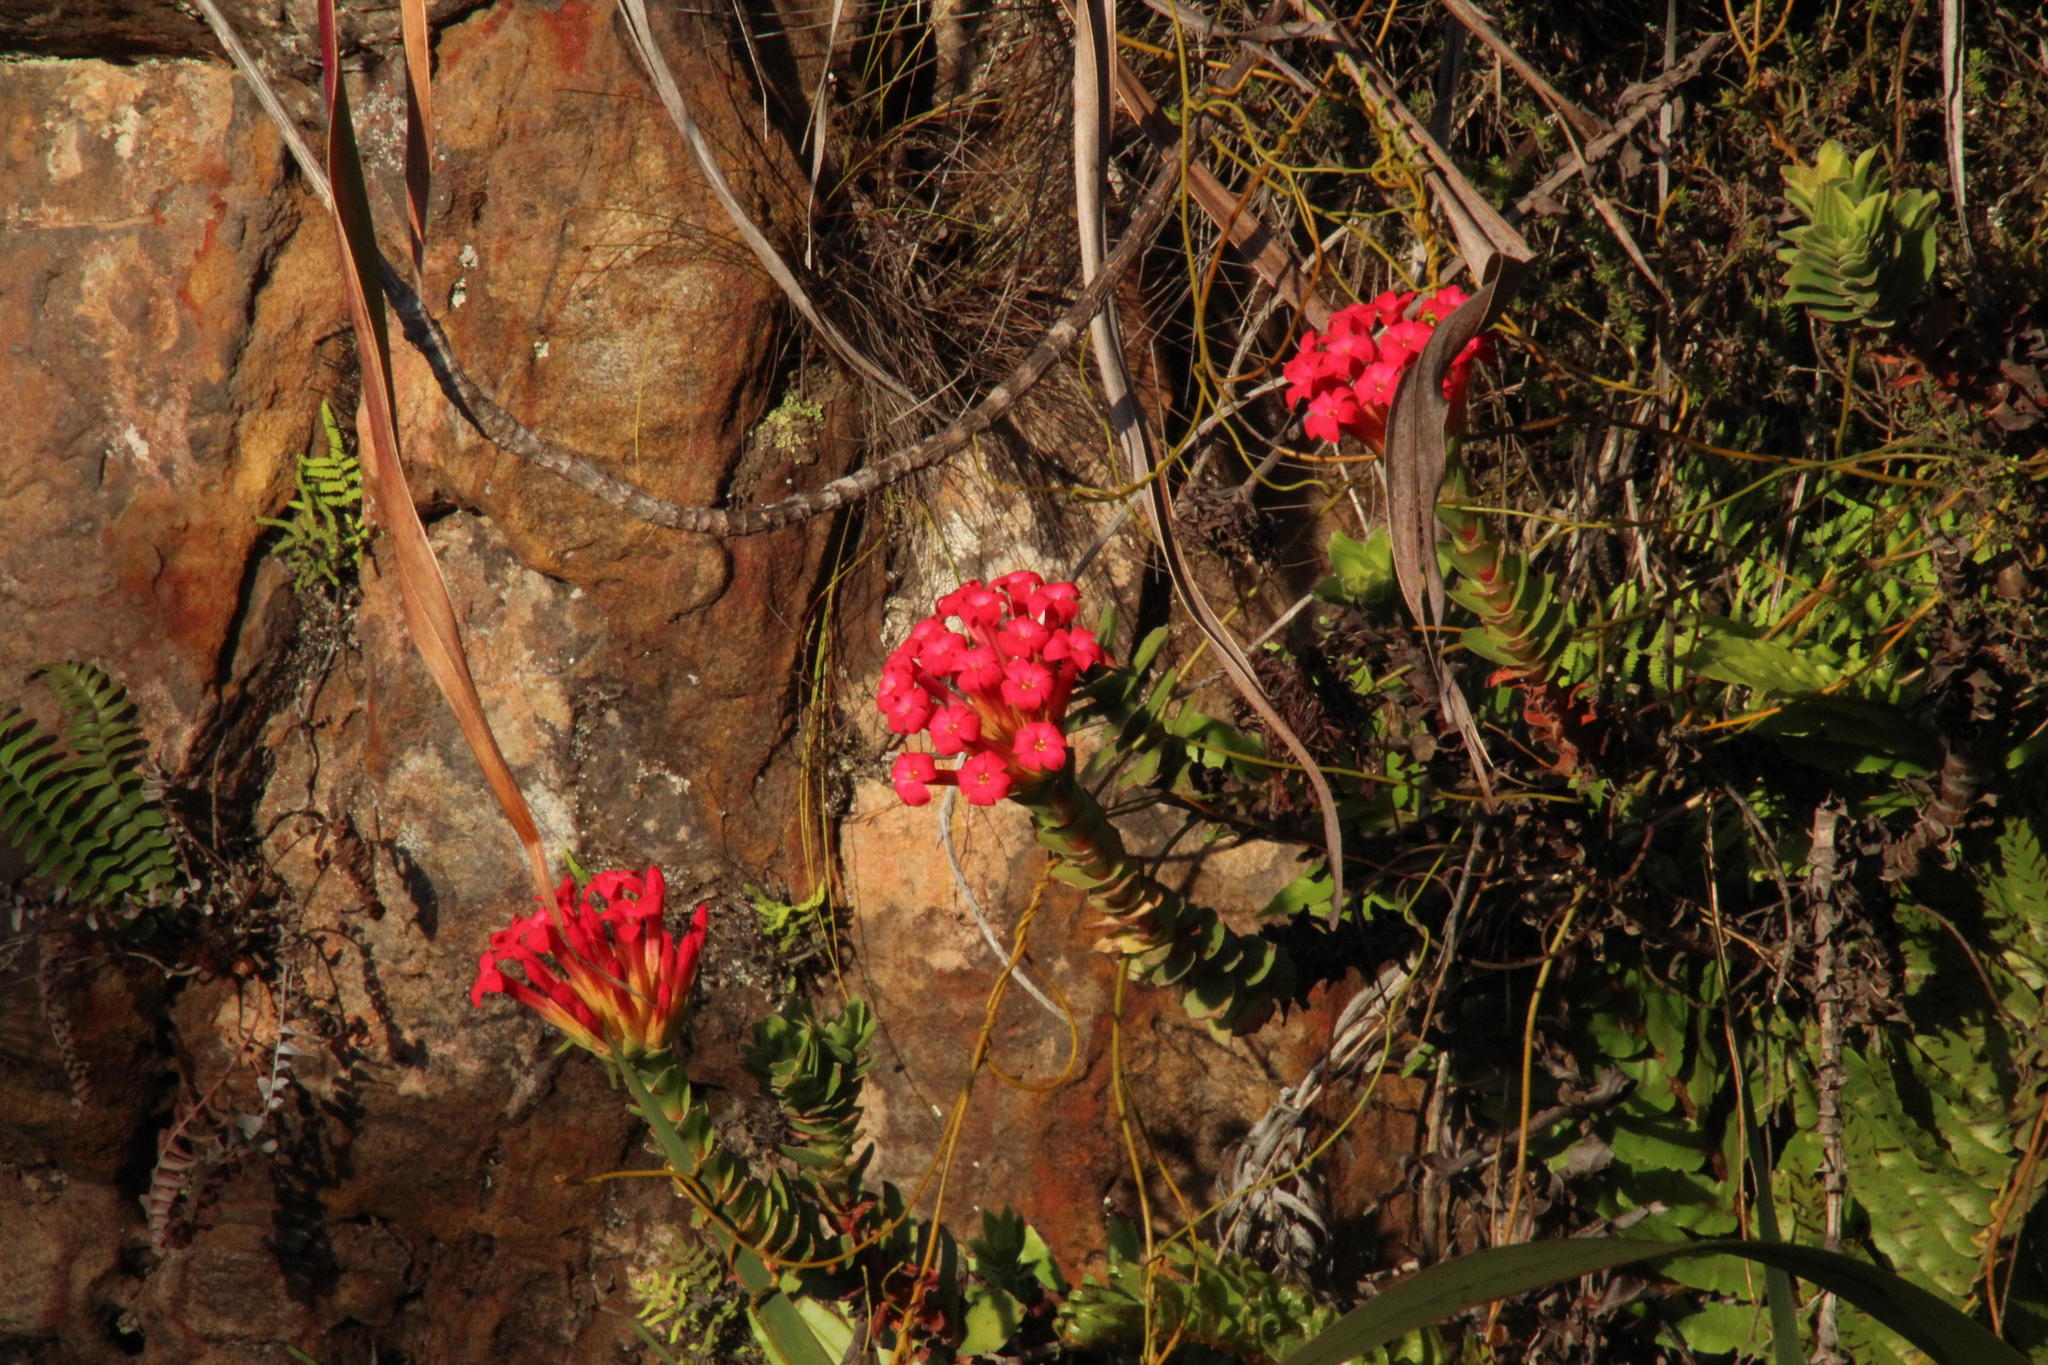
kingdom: Plantae
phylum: Tracheophyta
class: Magnoliopsida
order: Saxifragales
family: Crassulaceae
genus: Crassula
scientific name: Crassula coccinea
